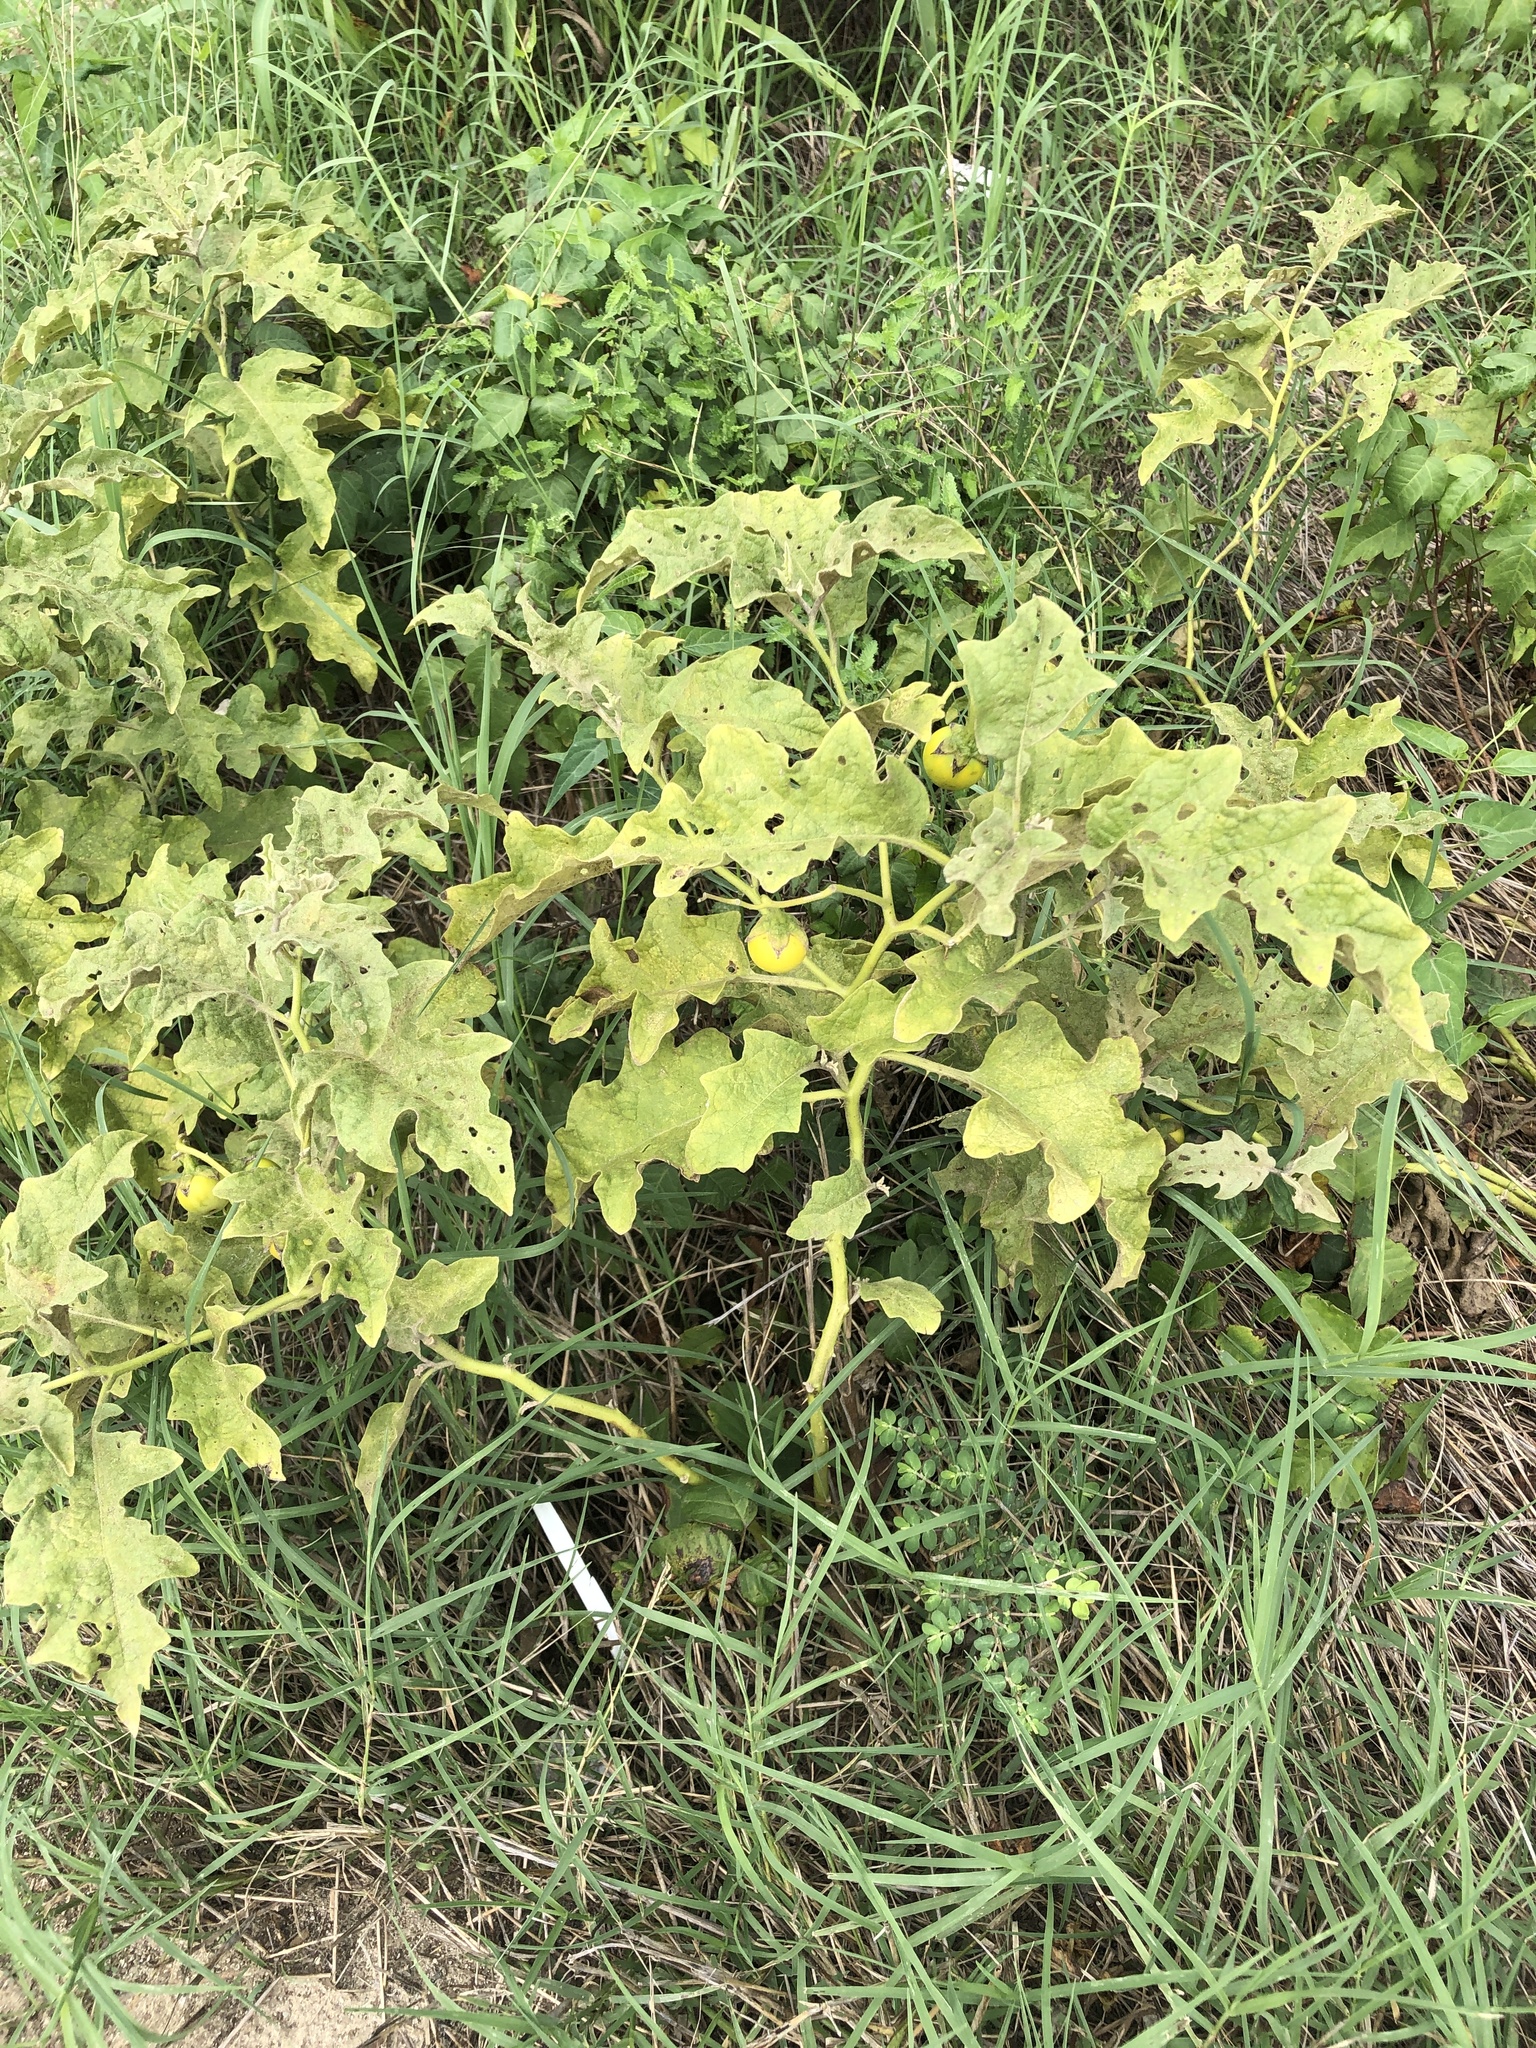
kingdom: Plantae
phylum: Tracheophyta
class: Magnoliopsida
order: Solanales
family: Solanaceae
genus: Solanum
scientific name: Solanum dimidiatum
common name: Carolina horse-nettle
